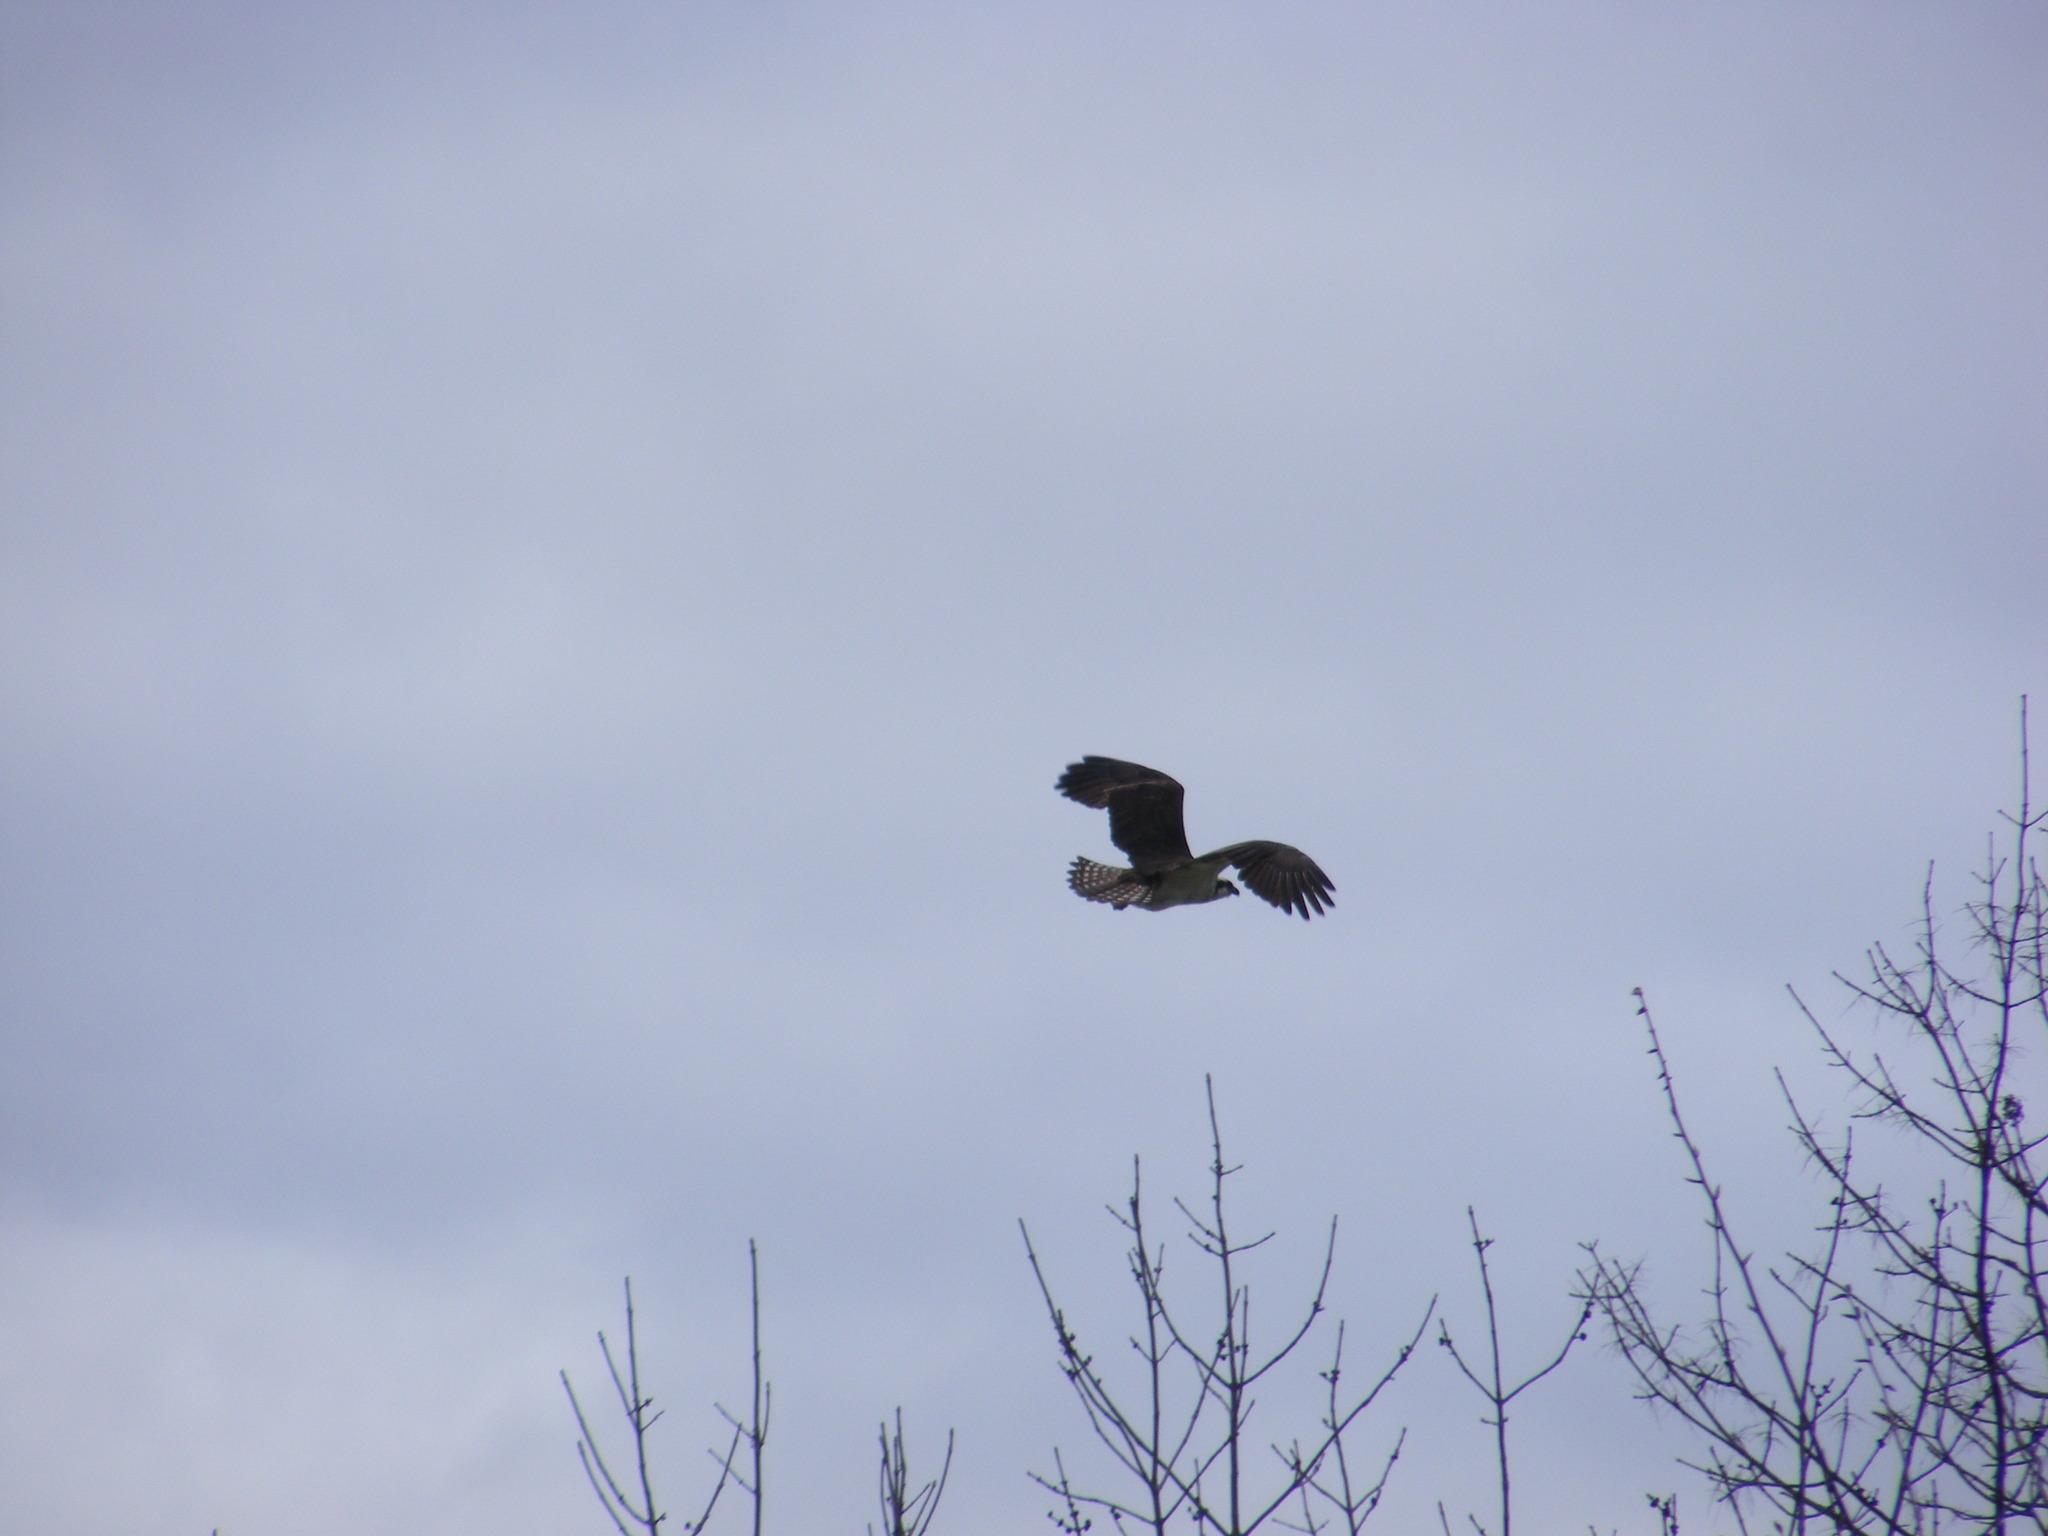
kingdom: Animalia
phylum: Chordata
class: Aves
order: Accipitriformes
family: Pandionidae
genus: Pandion
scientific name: Pandion haliaetus
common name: Osprey
